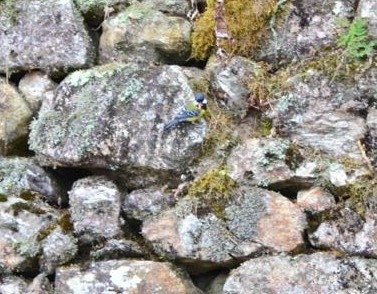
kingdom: Animalia
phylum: Chordata
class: Aves
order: Passeriformes
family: Paridae
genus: Parus
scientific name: Parus monticolus
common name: Green-backed tit
